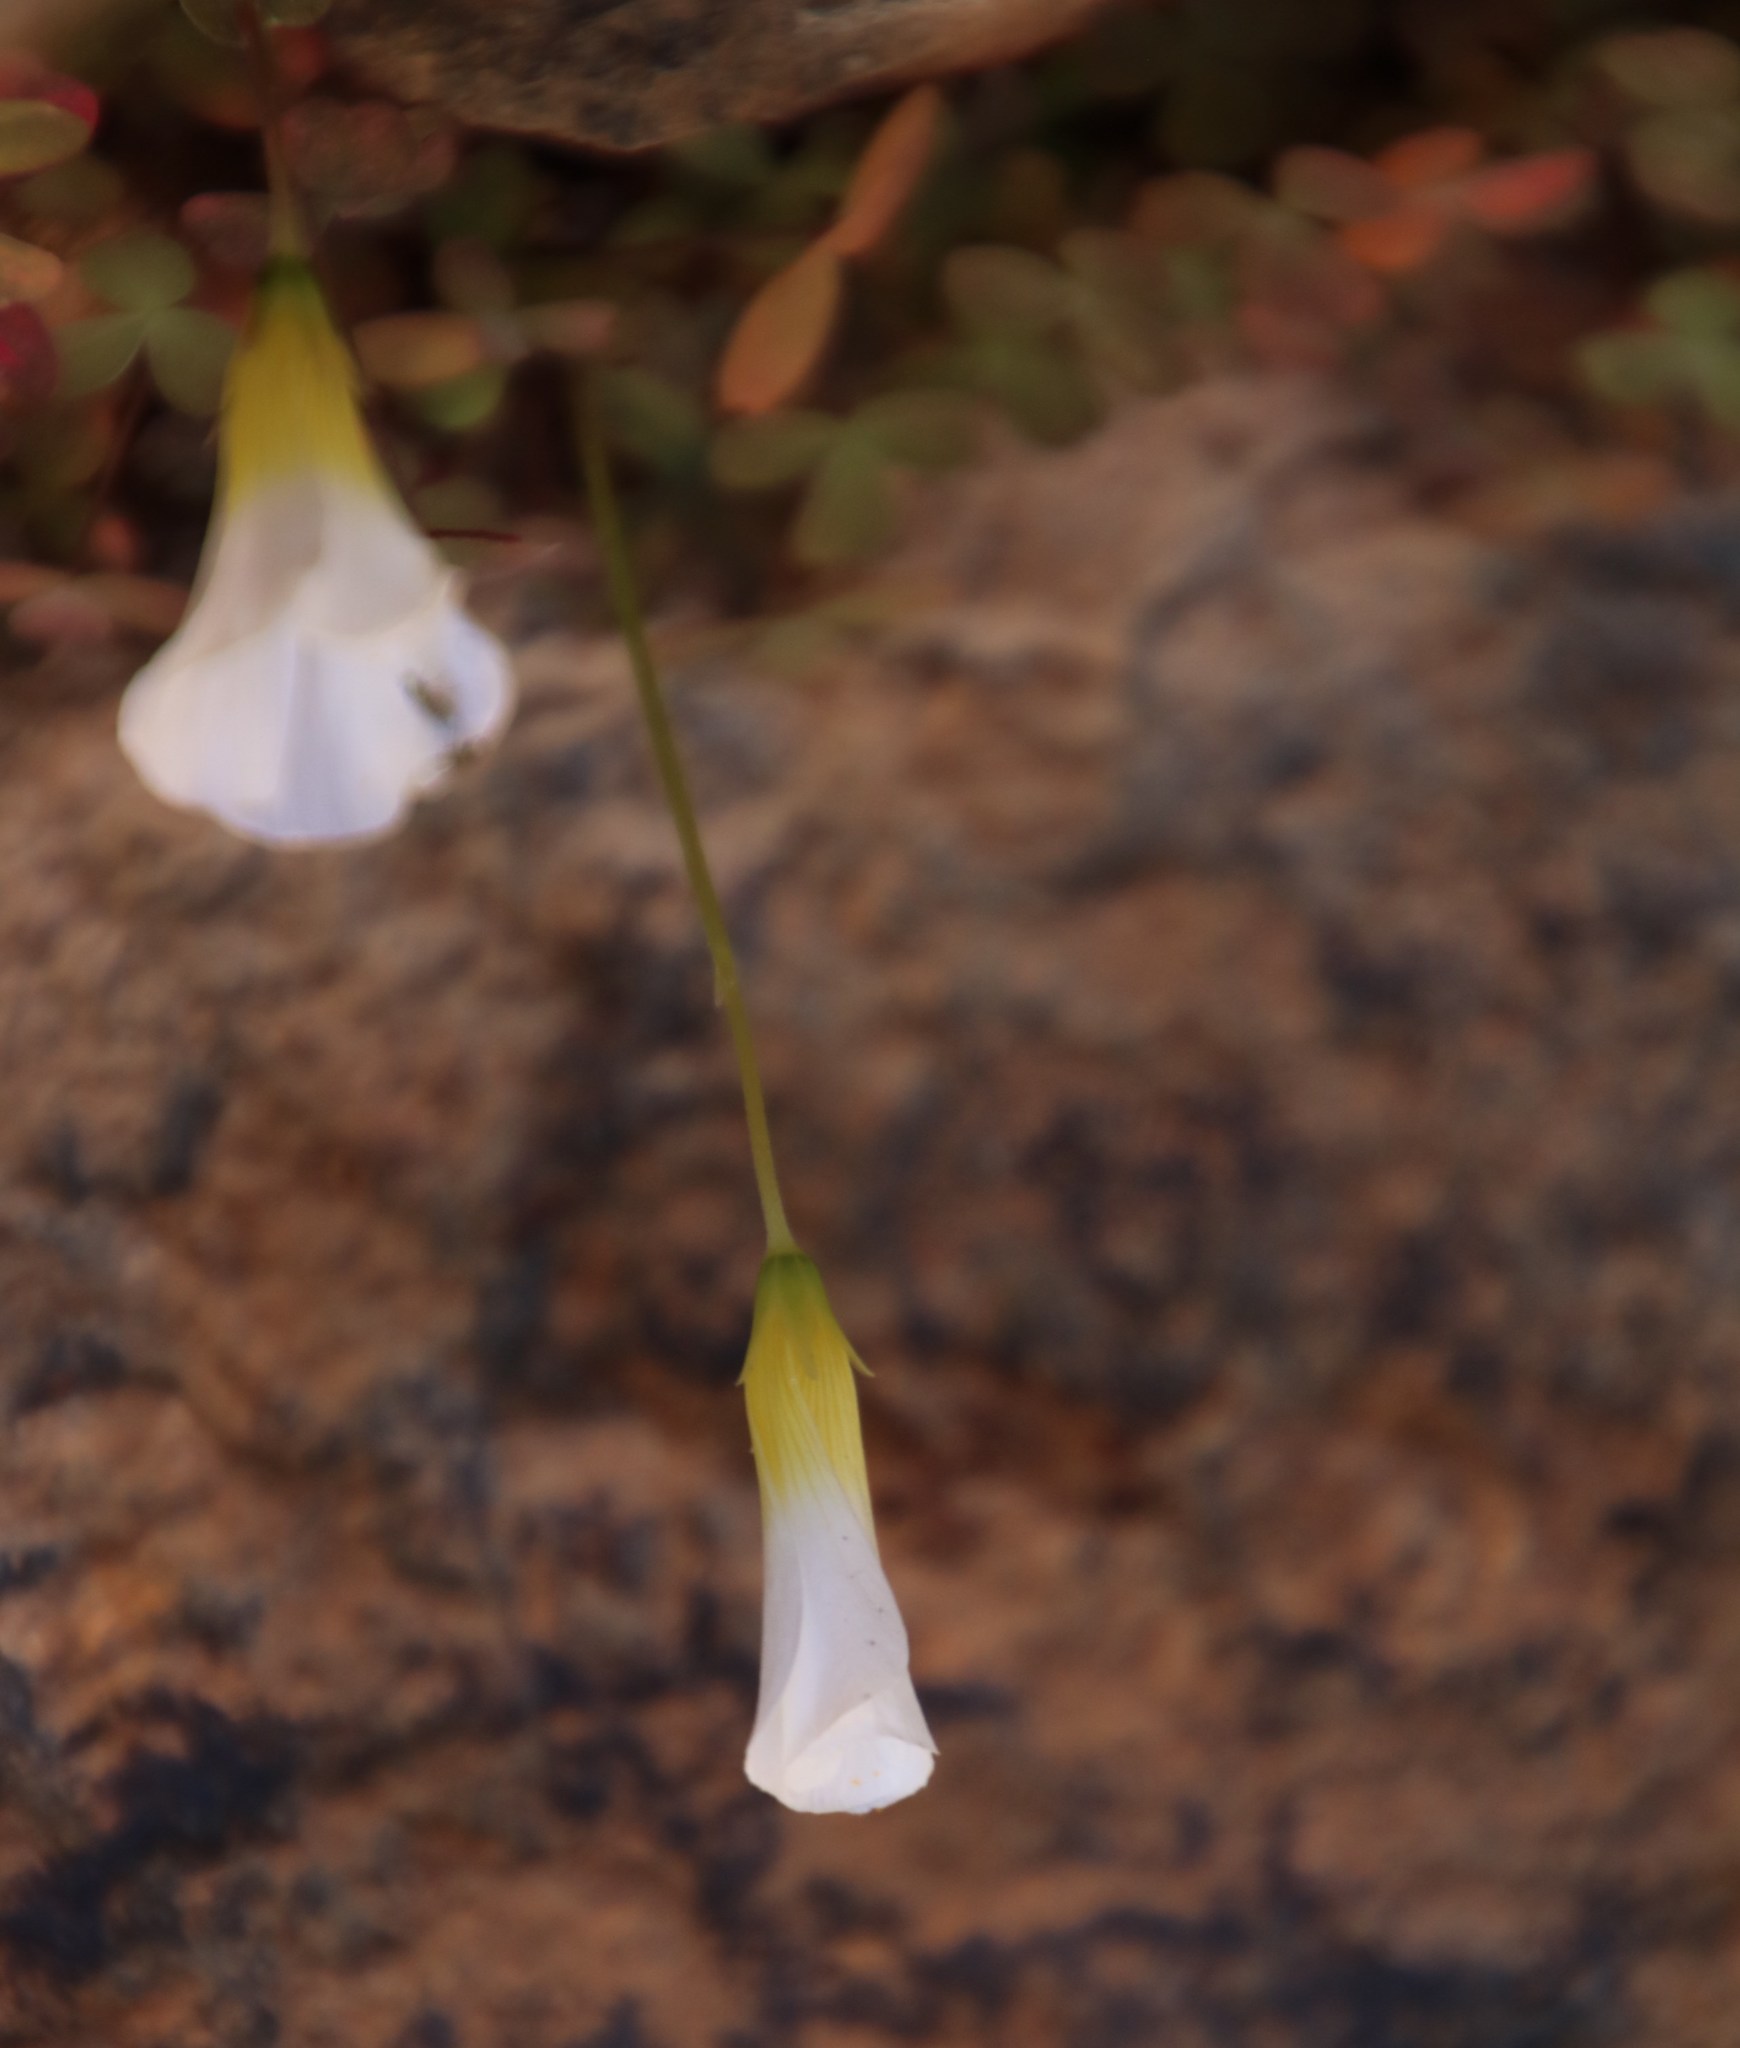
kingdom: Plantae
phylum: Tracheophyta
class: Magnoliopsida
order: Oxalidales
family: Oxalidaceae
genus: Oxalis
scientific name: Oxalis obtusa
